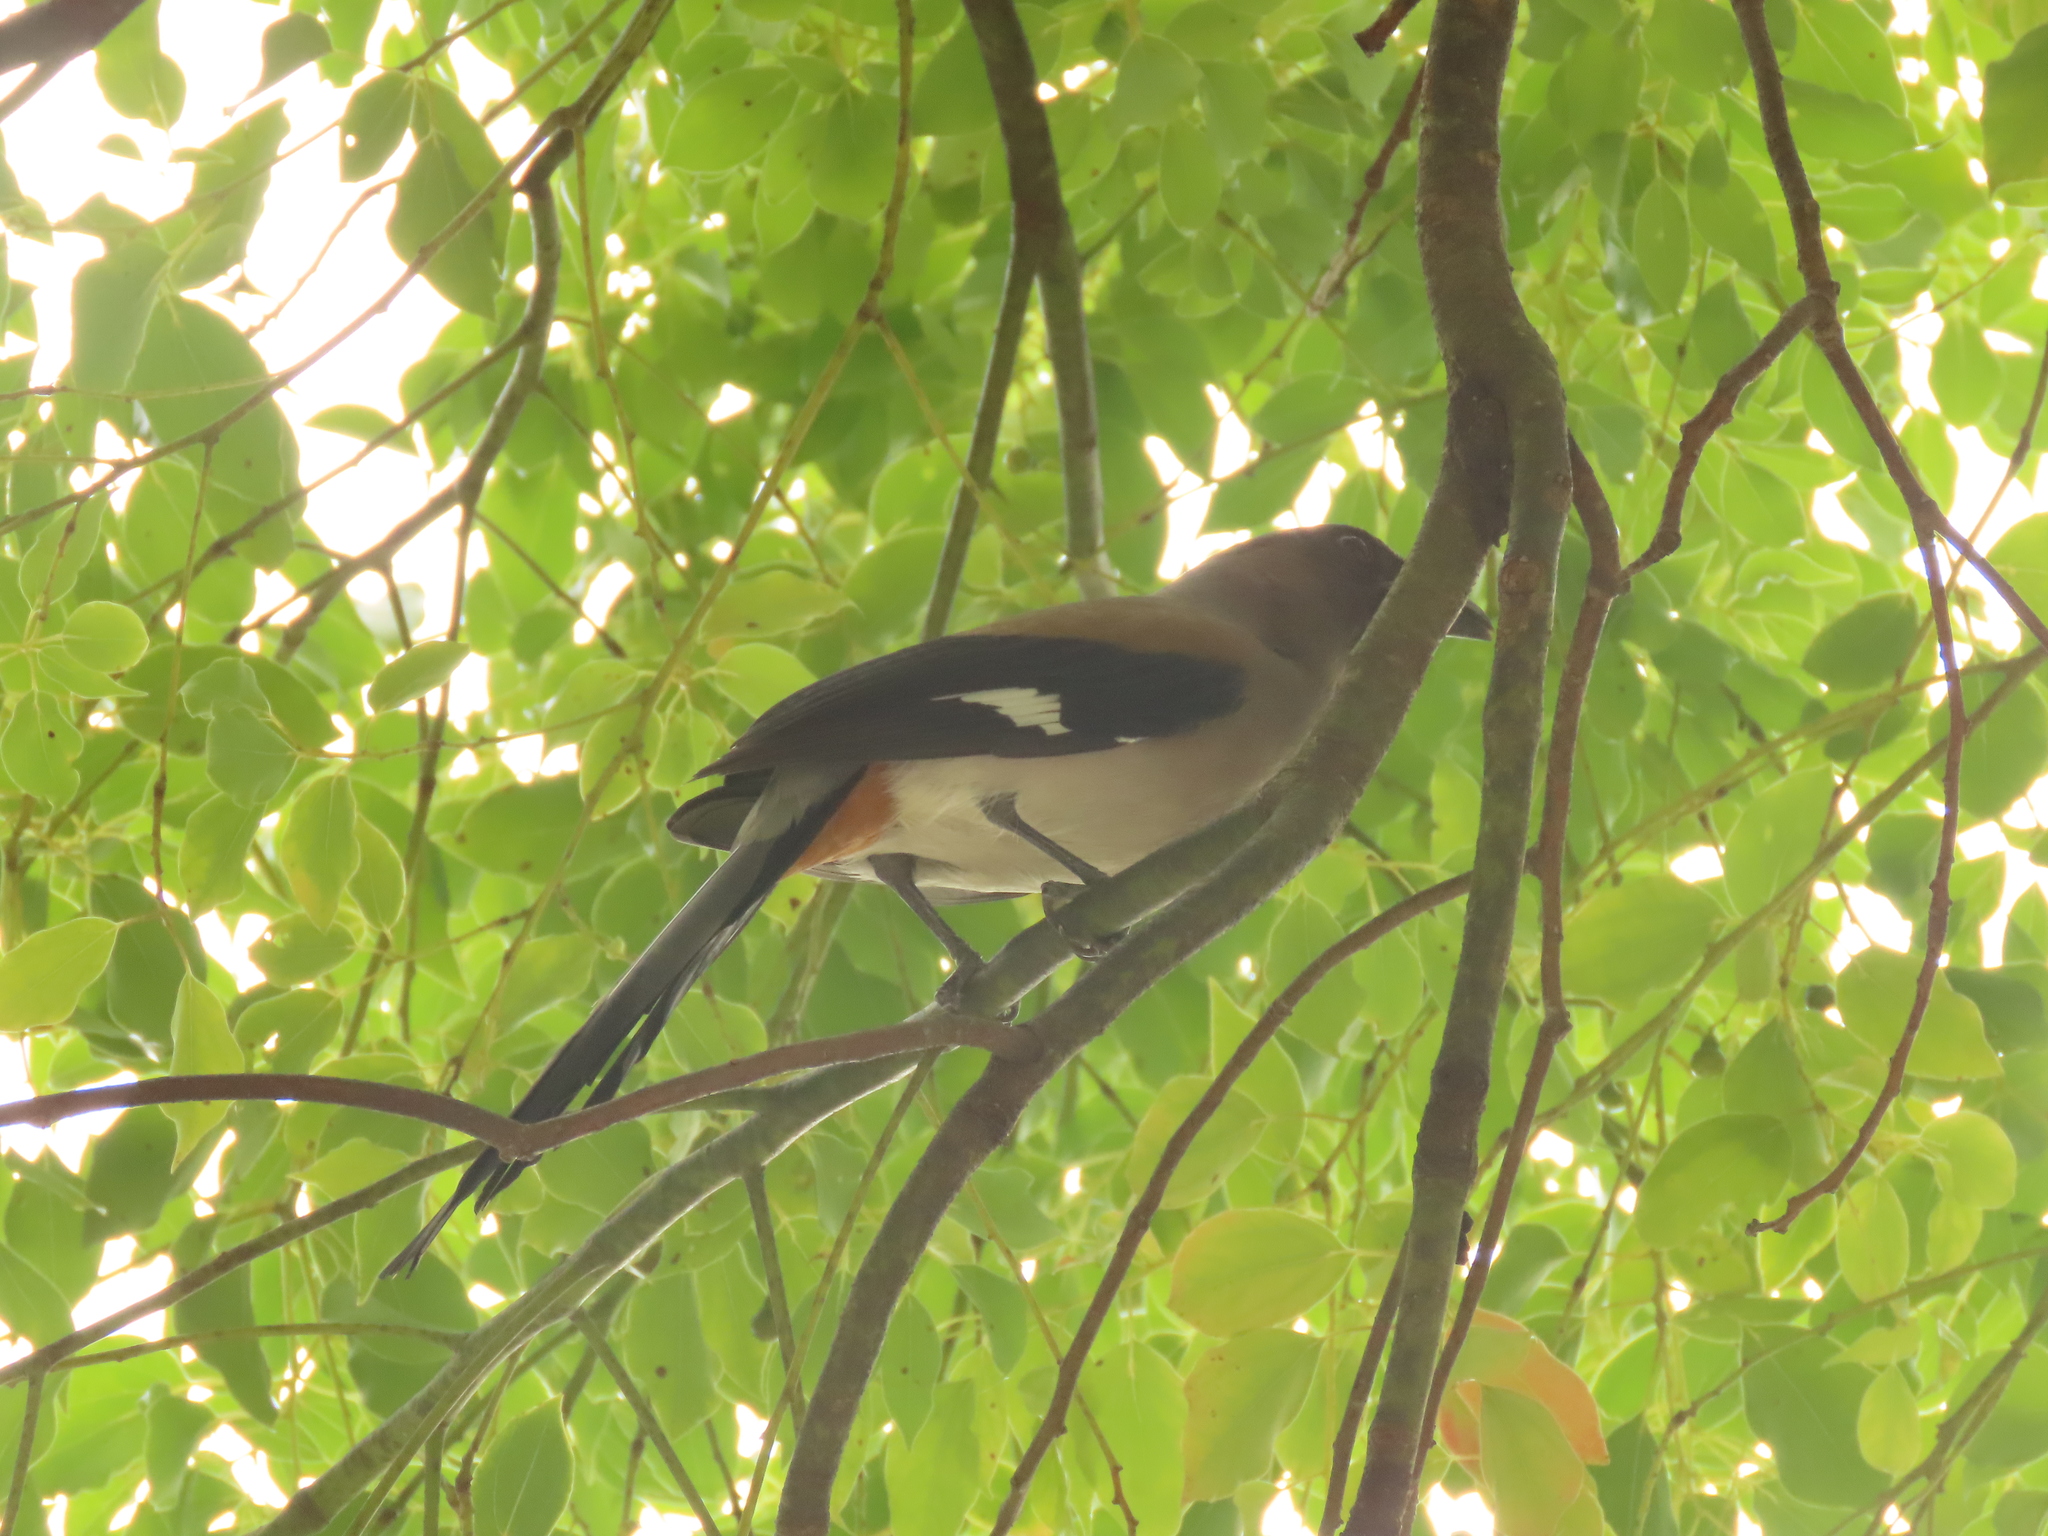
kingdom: Animalia
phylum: Chordata
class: Aves
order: Passeriformes
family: Corvidae
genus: Dendrocitta
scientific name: Dendrocitta formosae
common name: Grey treepie
